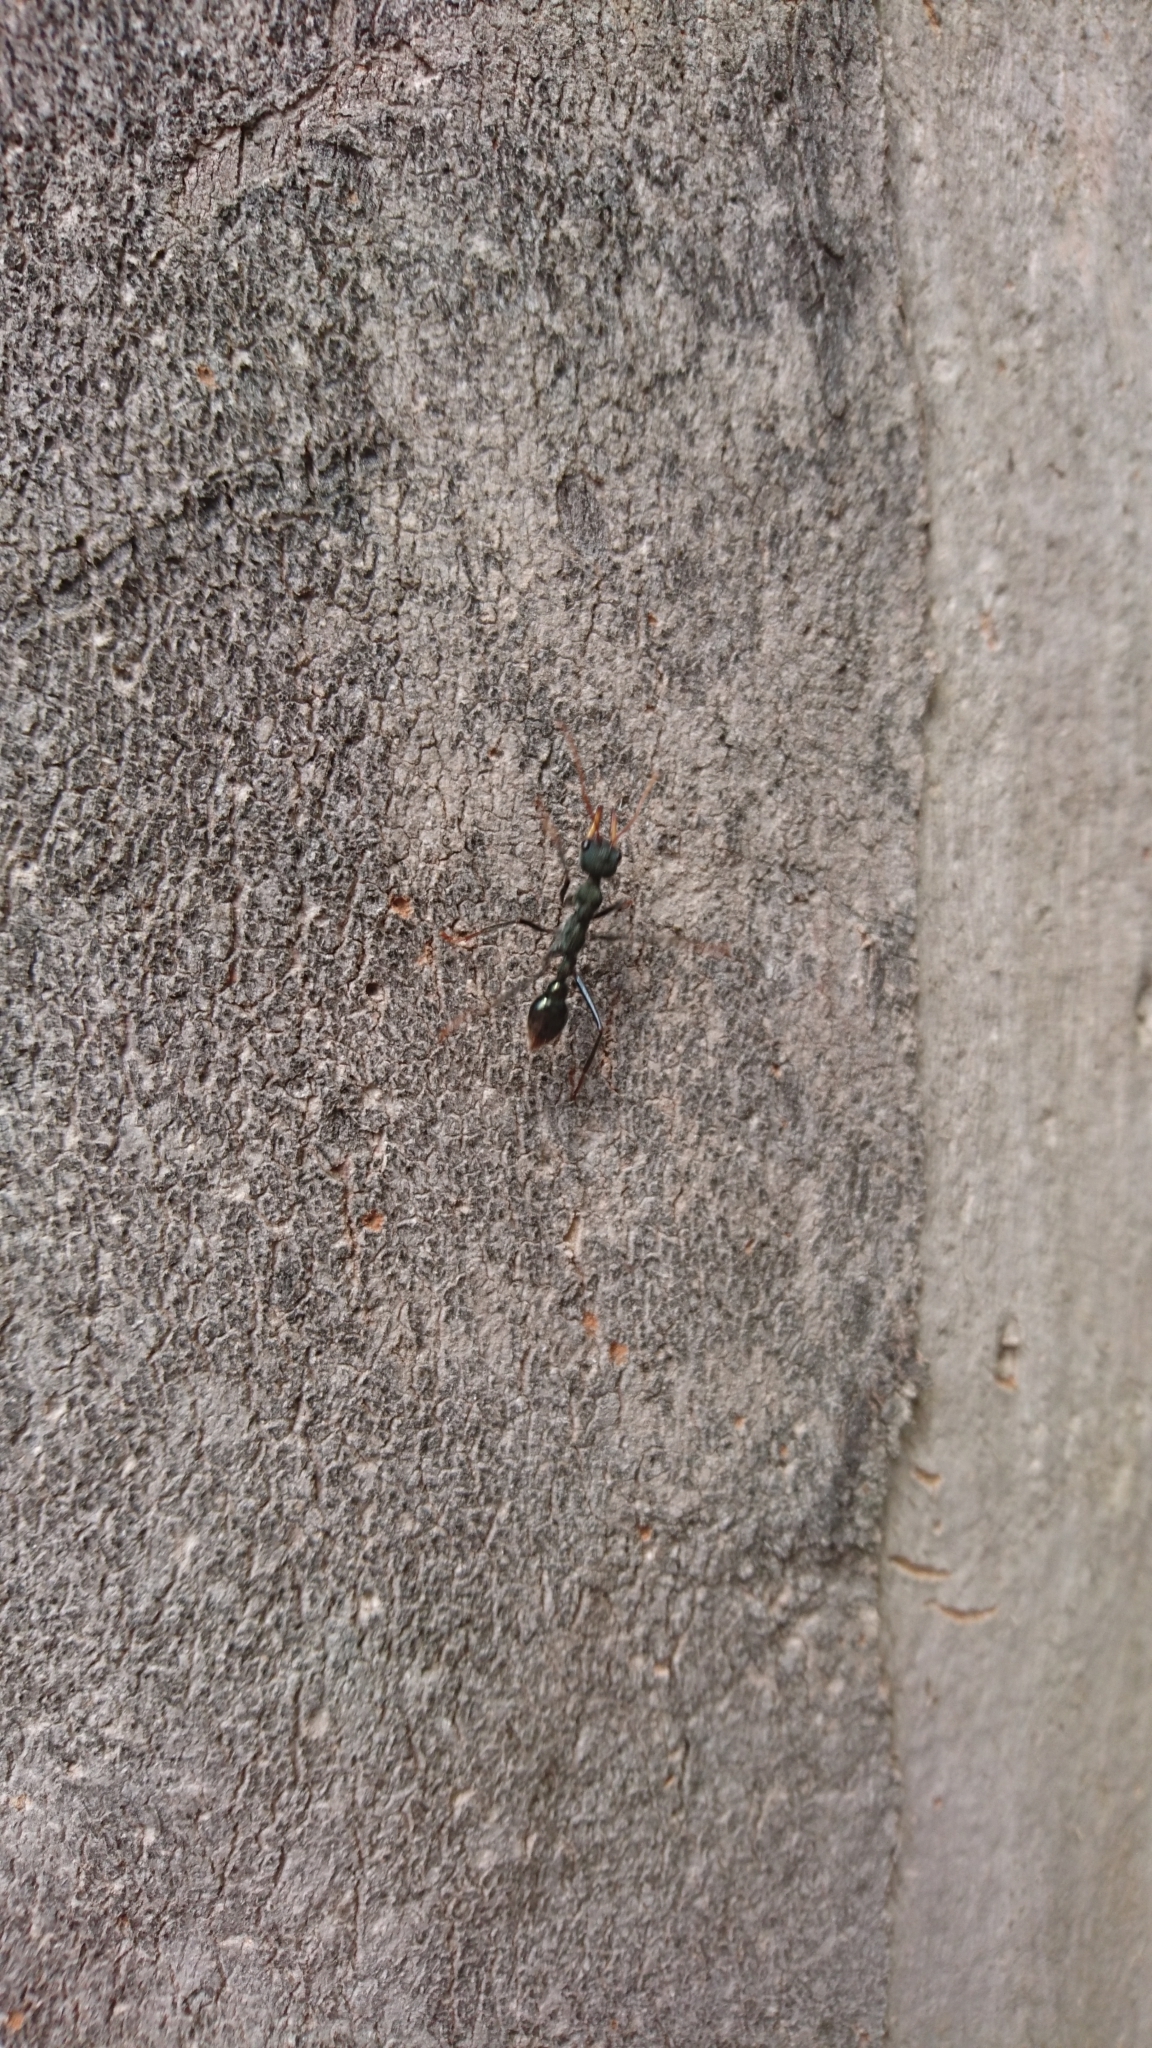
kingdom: Animalia
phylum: Arthropoda
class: Insecta
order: Hymenoptera
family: Formicidae
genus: Myrmecia
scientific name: Myrmecia tarsata
